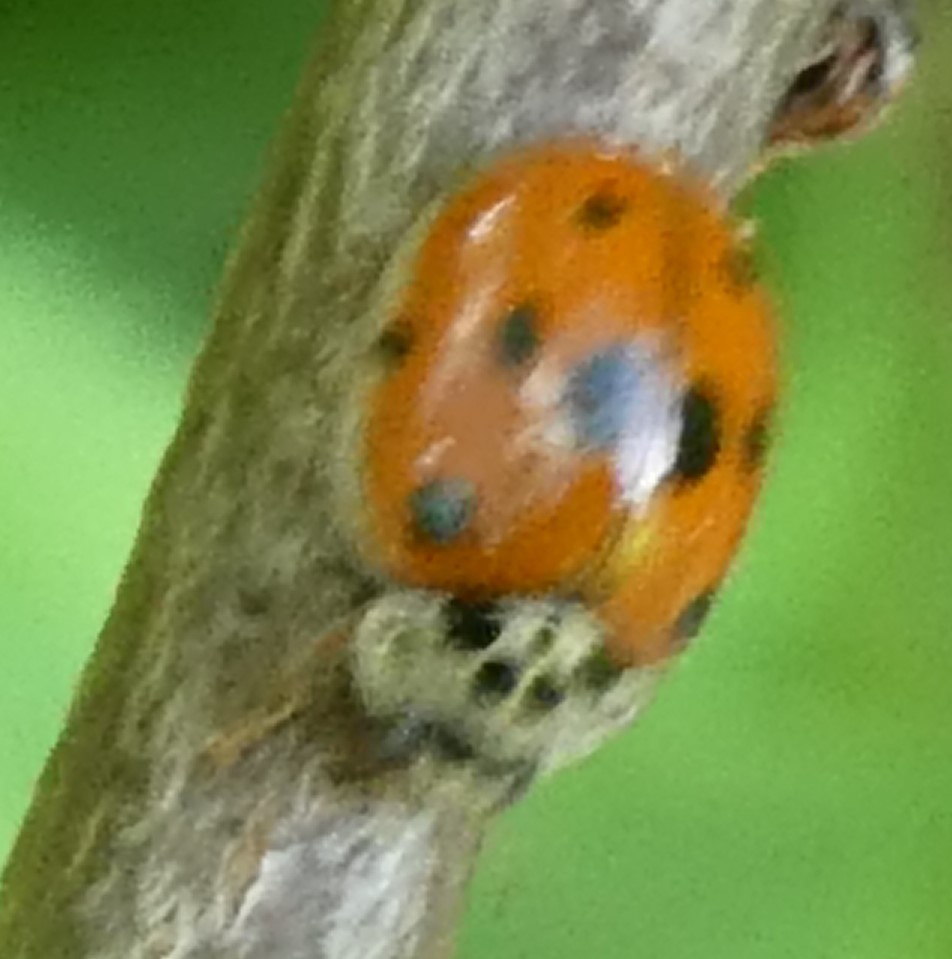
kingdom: Animalia
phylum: Arthropoda
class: Insecta
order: Coleoptera
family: Coccinellidae
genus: Adalia
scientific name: Adalia decempunctata
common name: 10-spot ladybird
